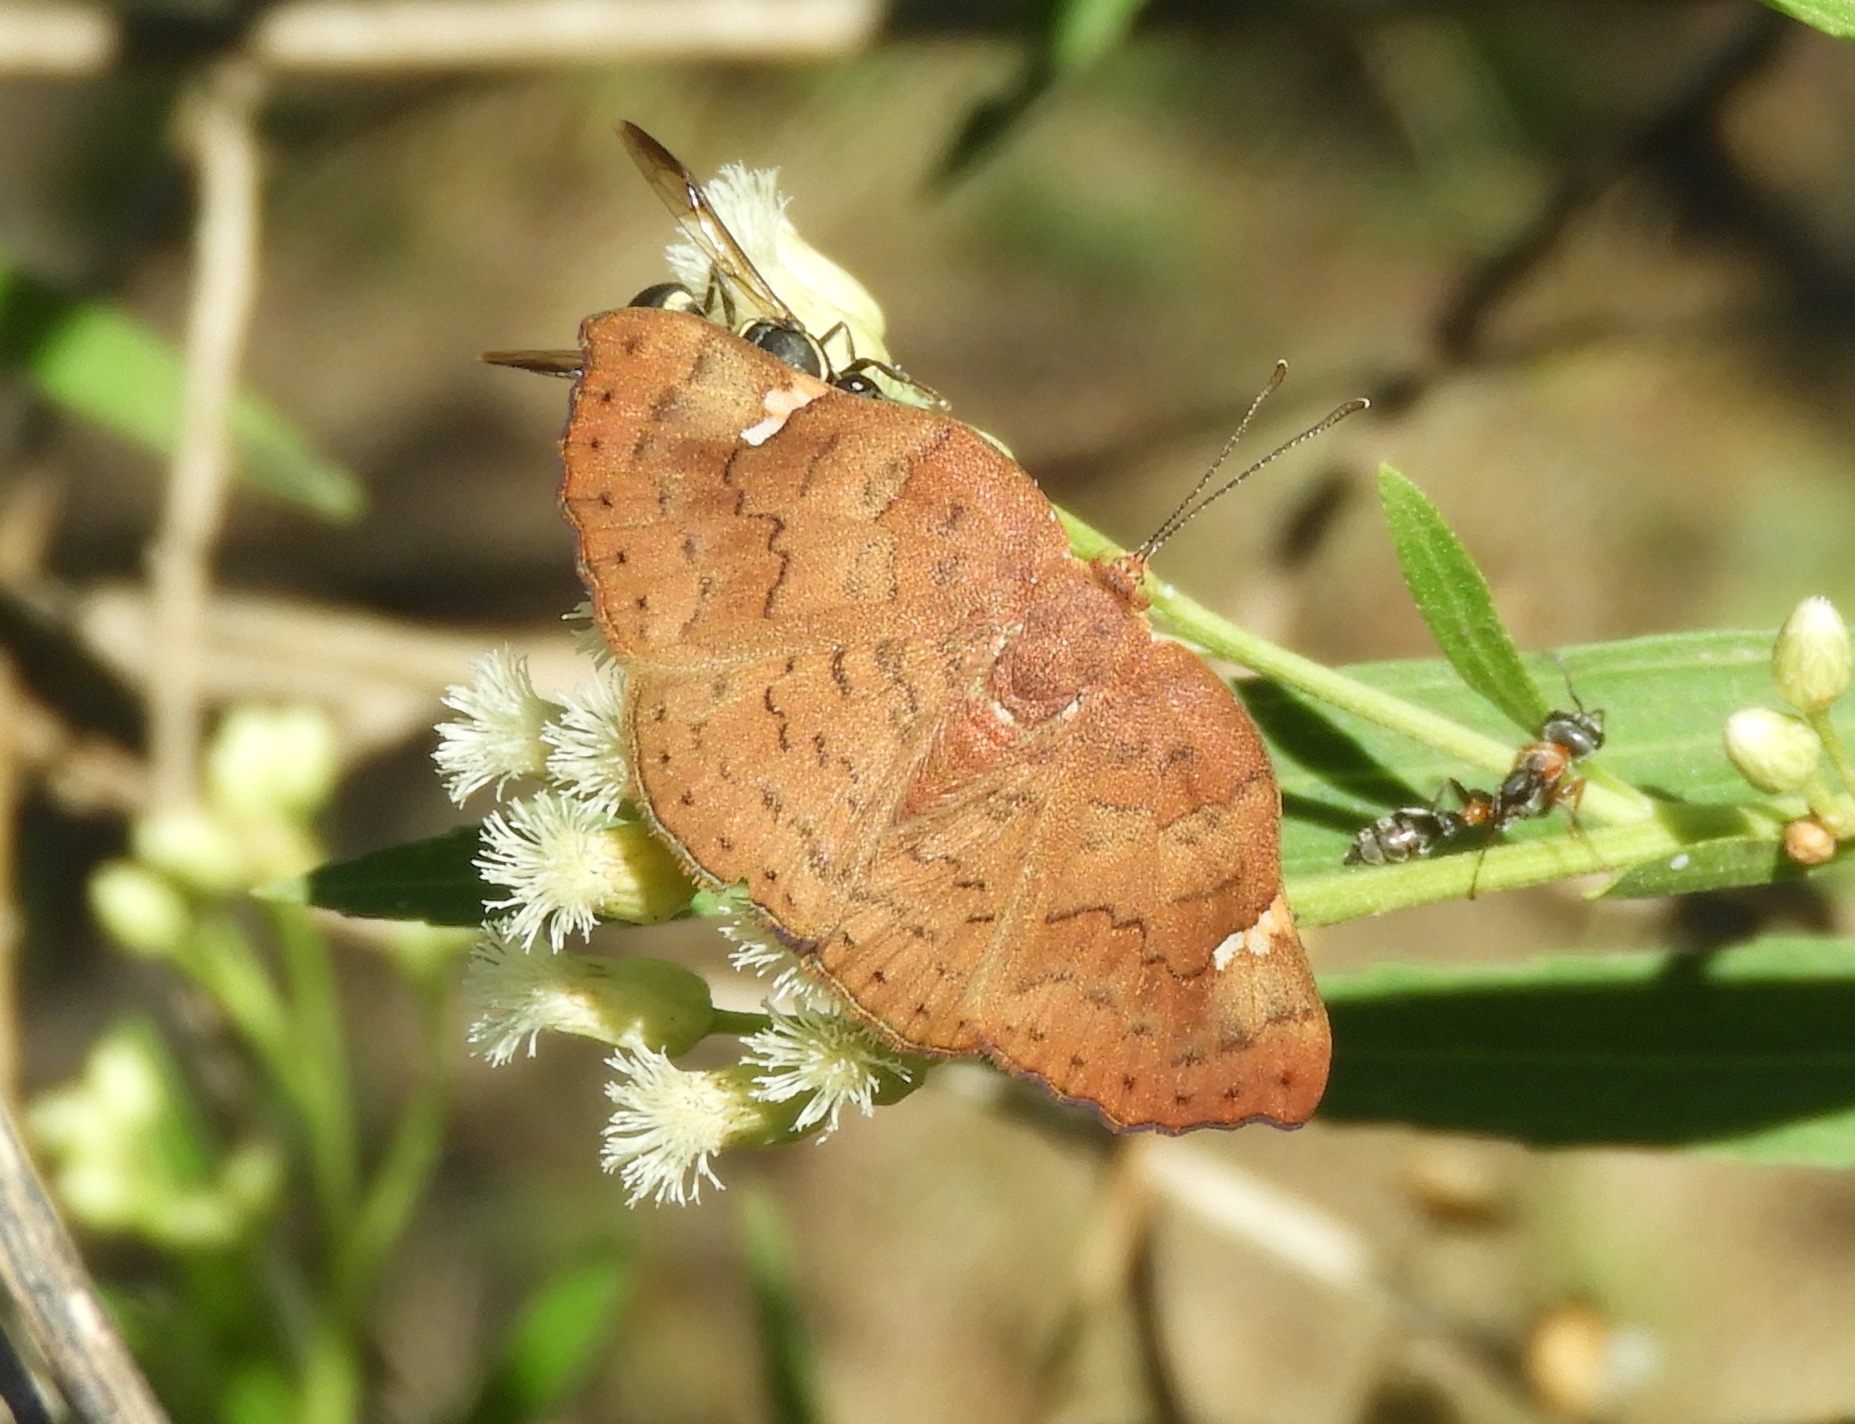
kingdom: Animalia
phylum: Arthropoda
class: Insecta
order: Lepidoptera
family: Riodinidae
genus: Curvie
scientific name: Curvie emesia
